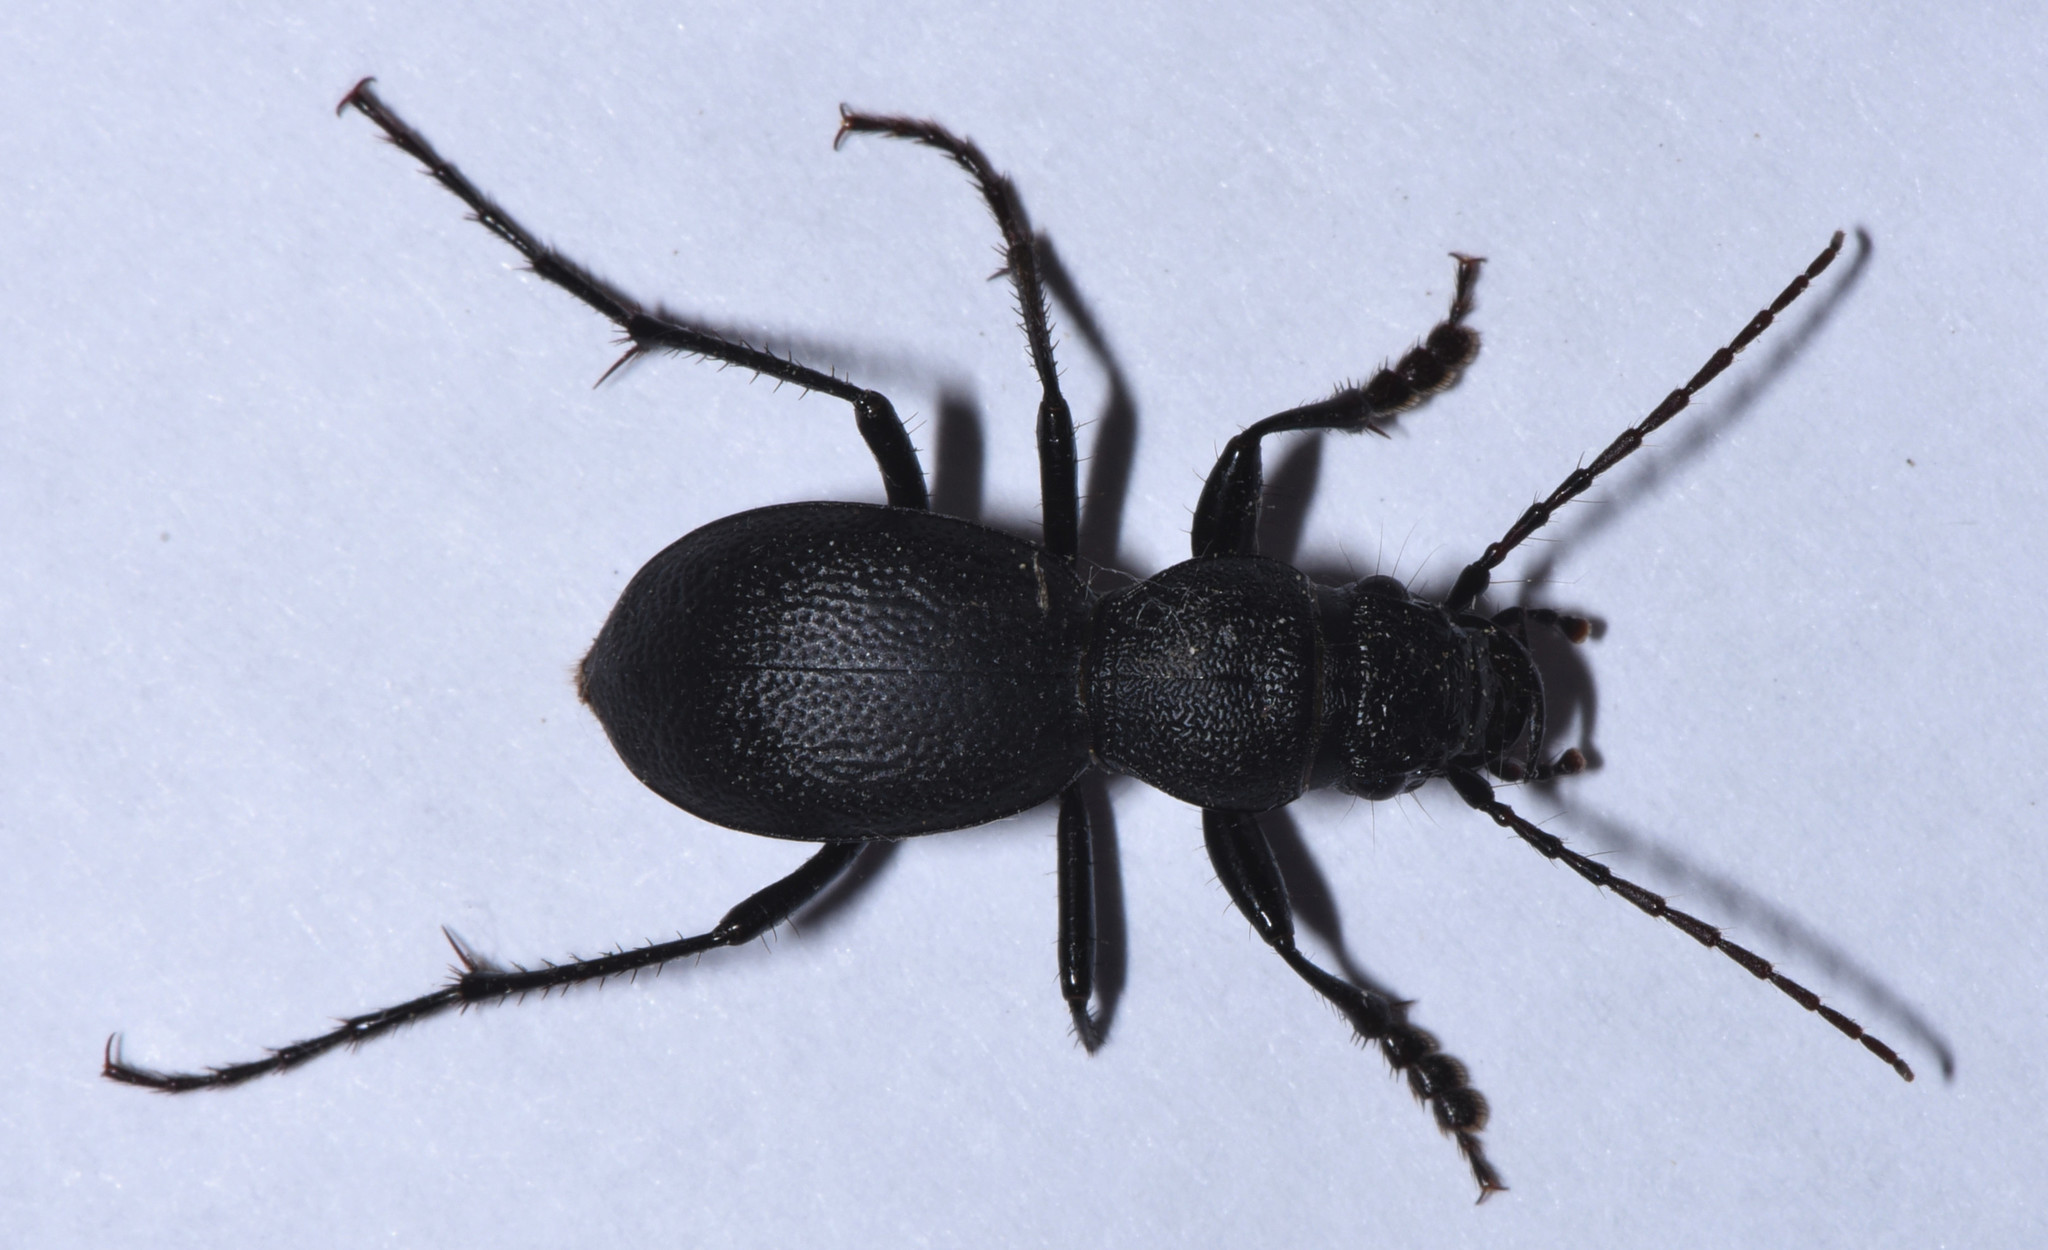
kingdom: Animalia
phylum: Arthropoda
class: Insecta
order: Coleoptera
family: Carabidae
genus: Omus
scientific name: Omus californicus
